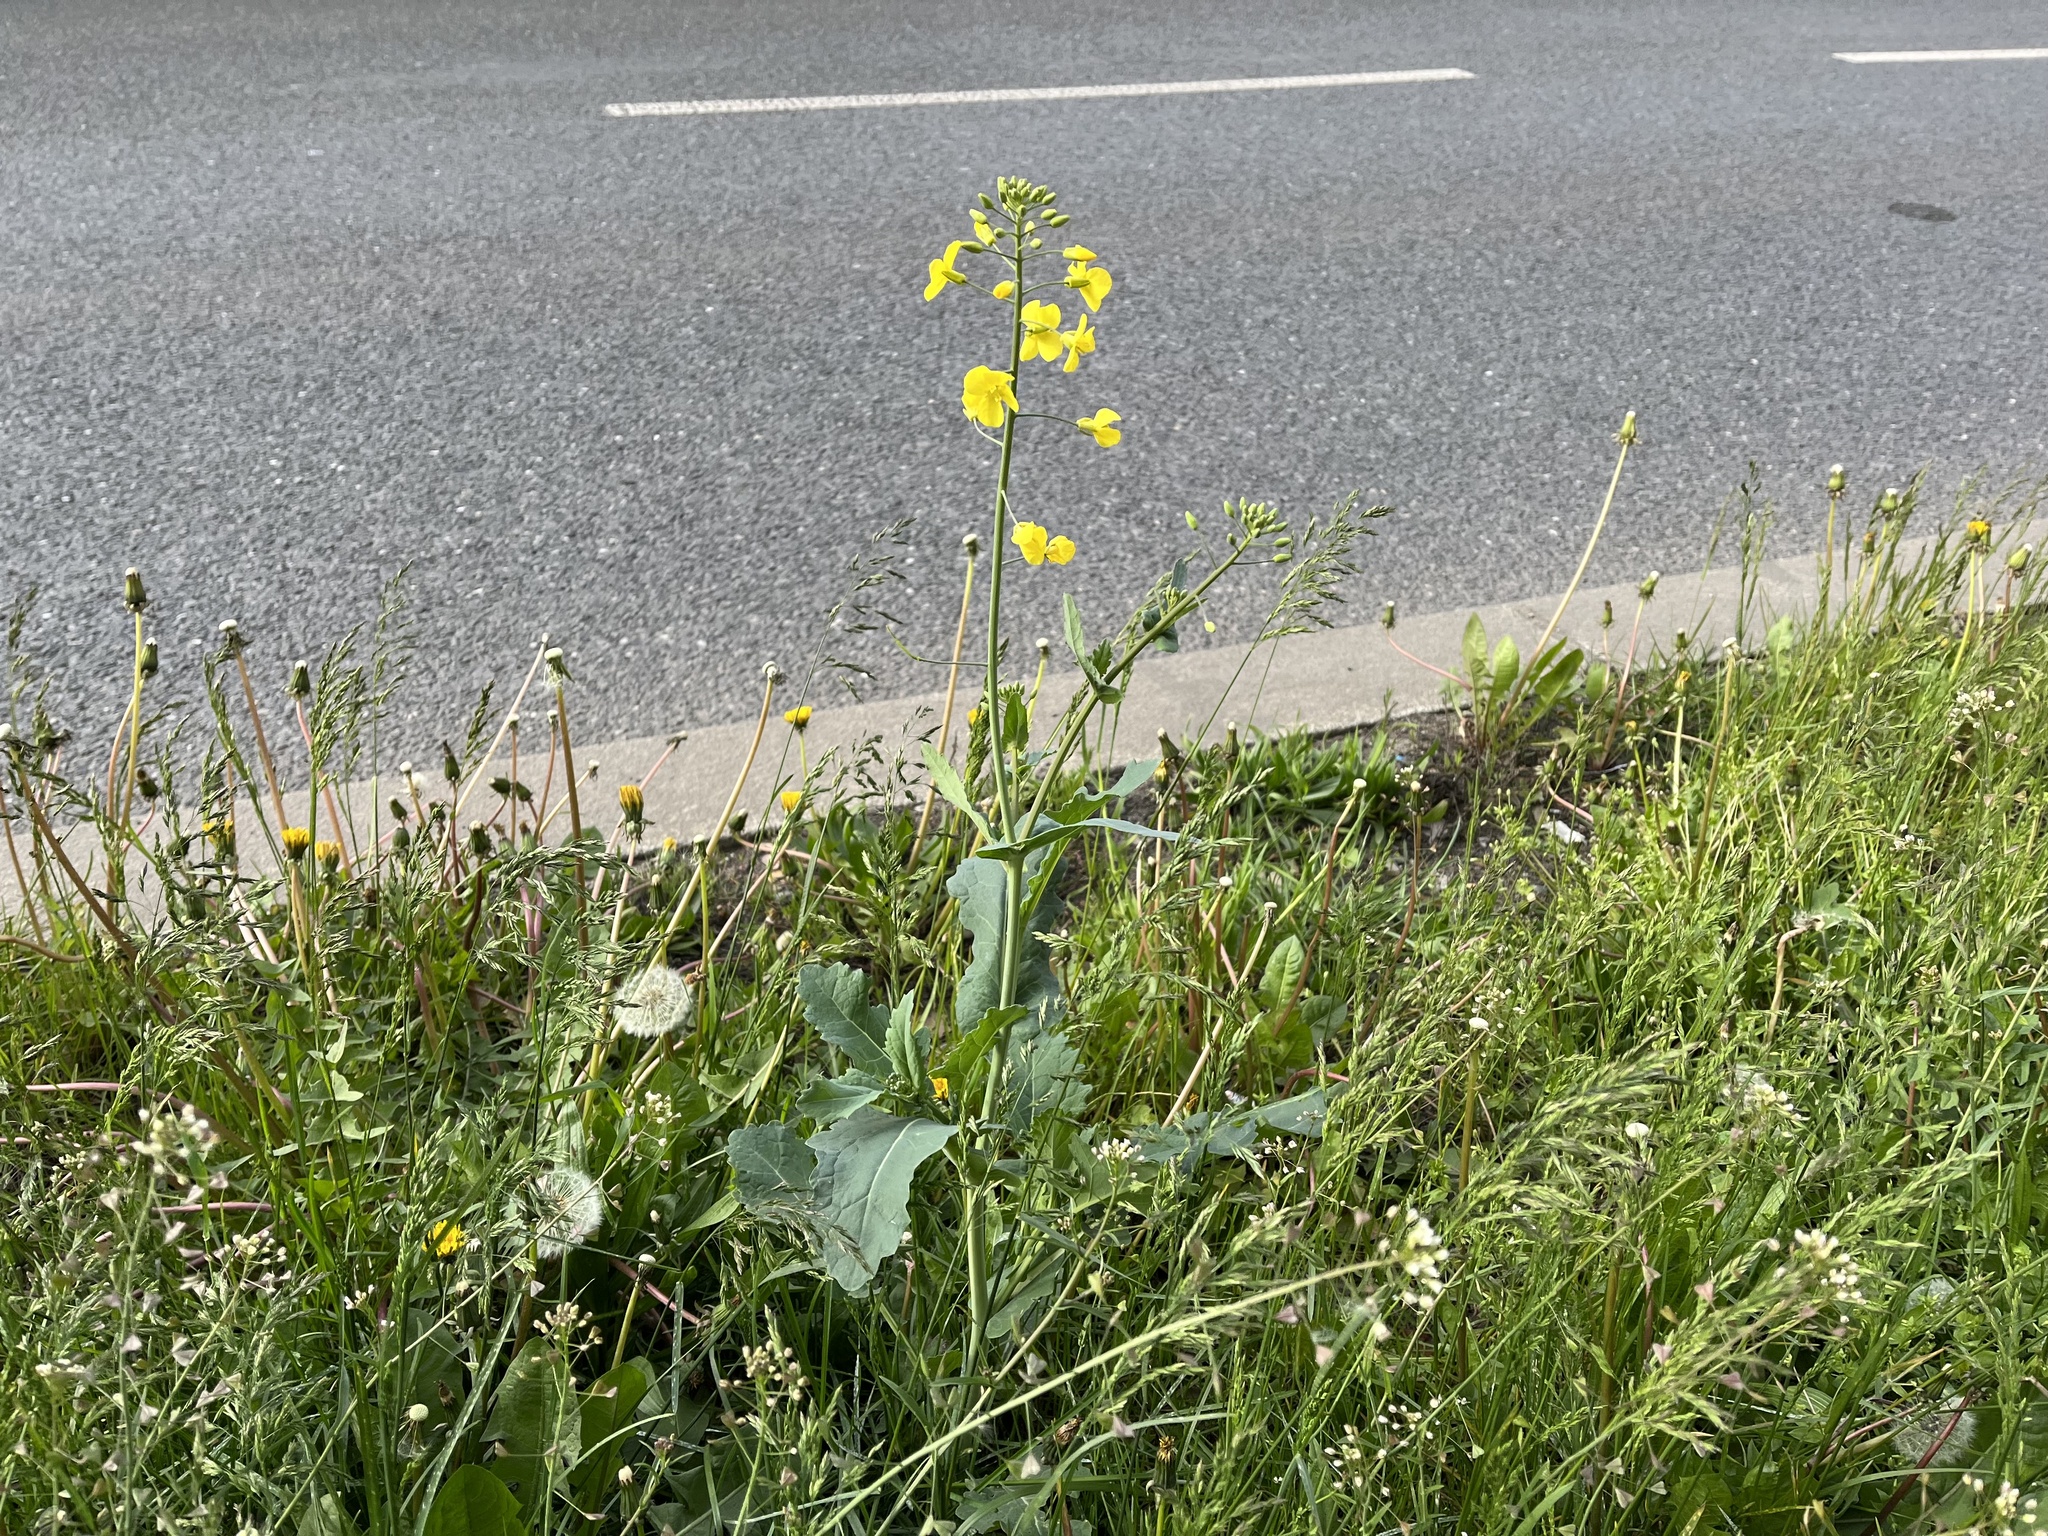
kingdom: Plantae
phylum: Tracheophyta
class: Magnoliopsida
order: Brassicales
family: Brassicaceae
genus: Brassica
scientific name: Brassica napus
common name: Rape
